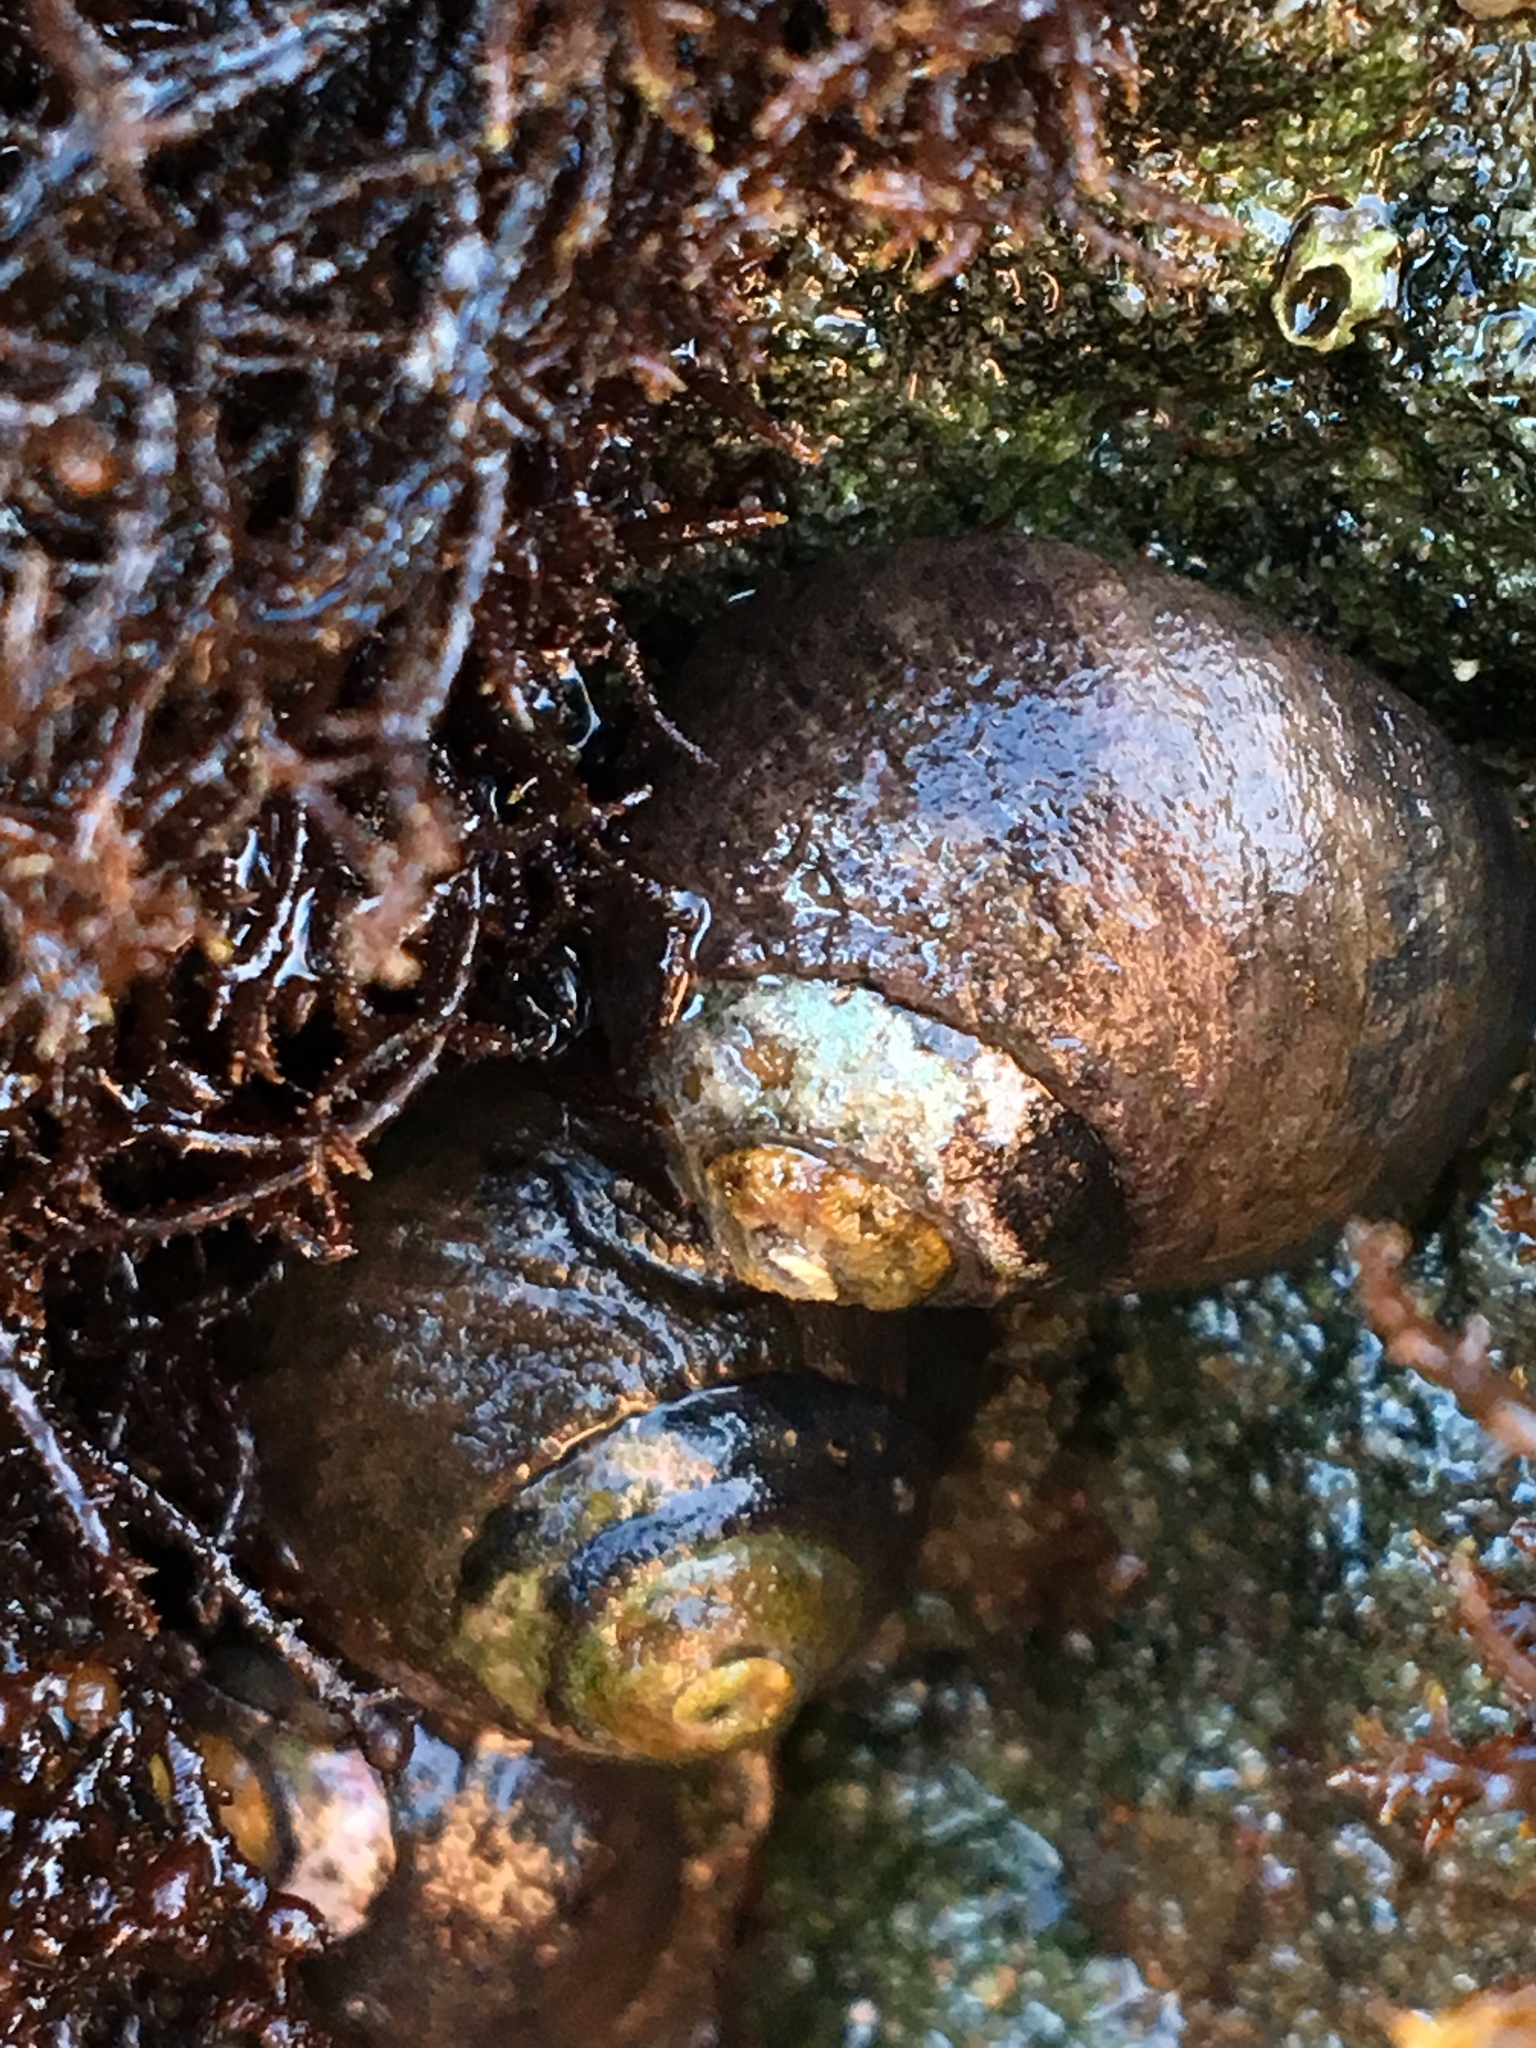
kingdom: Animalia
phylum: Mollusca
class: Gastropoda
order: Trochida
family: Tegulidae
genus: Tegula
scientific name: Tegula funebralis
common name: Black tegula
